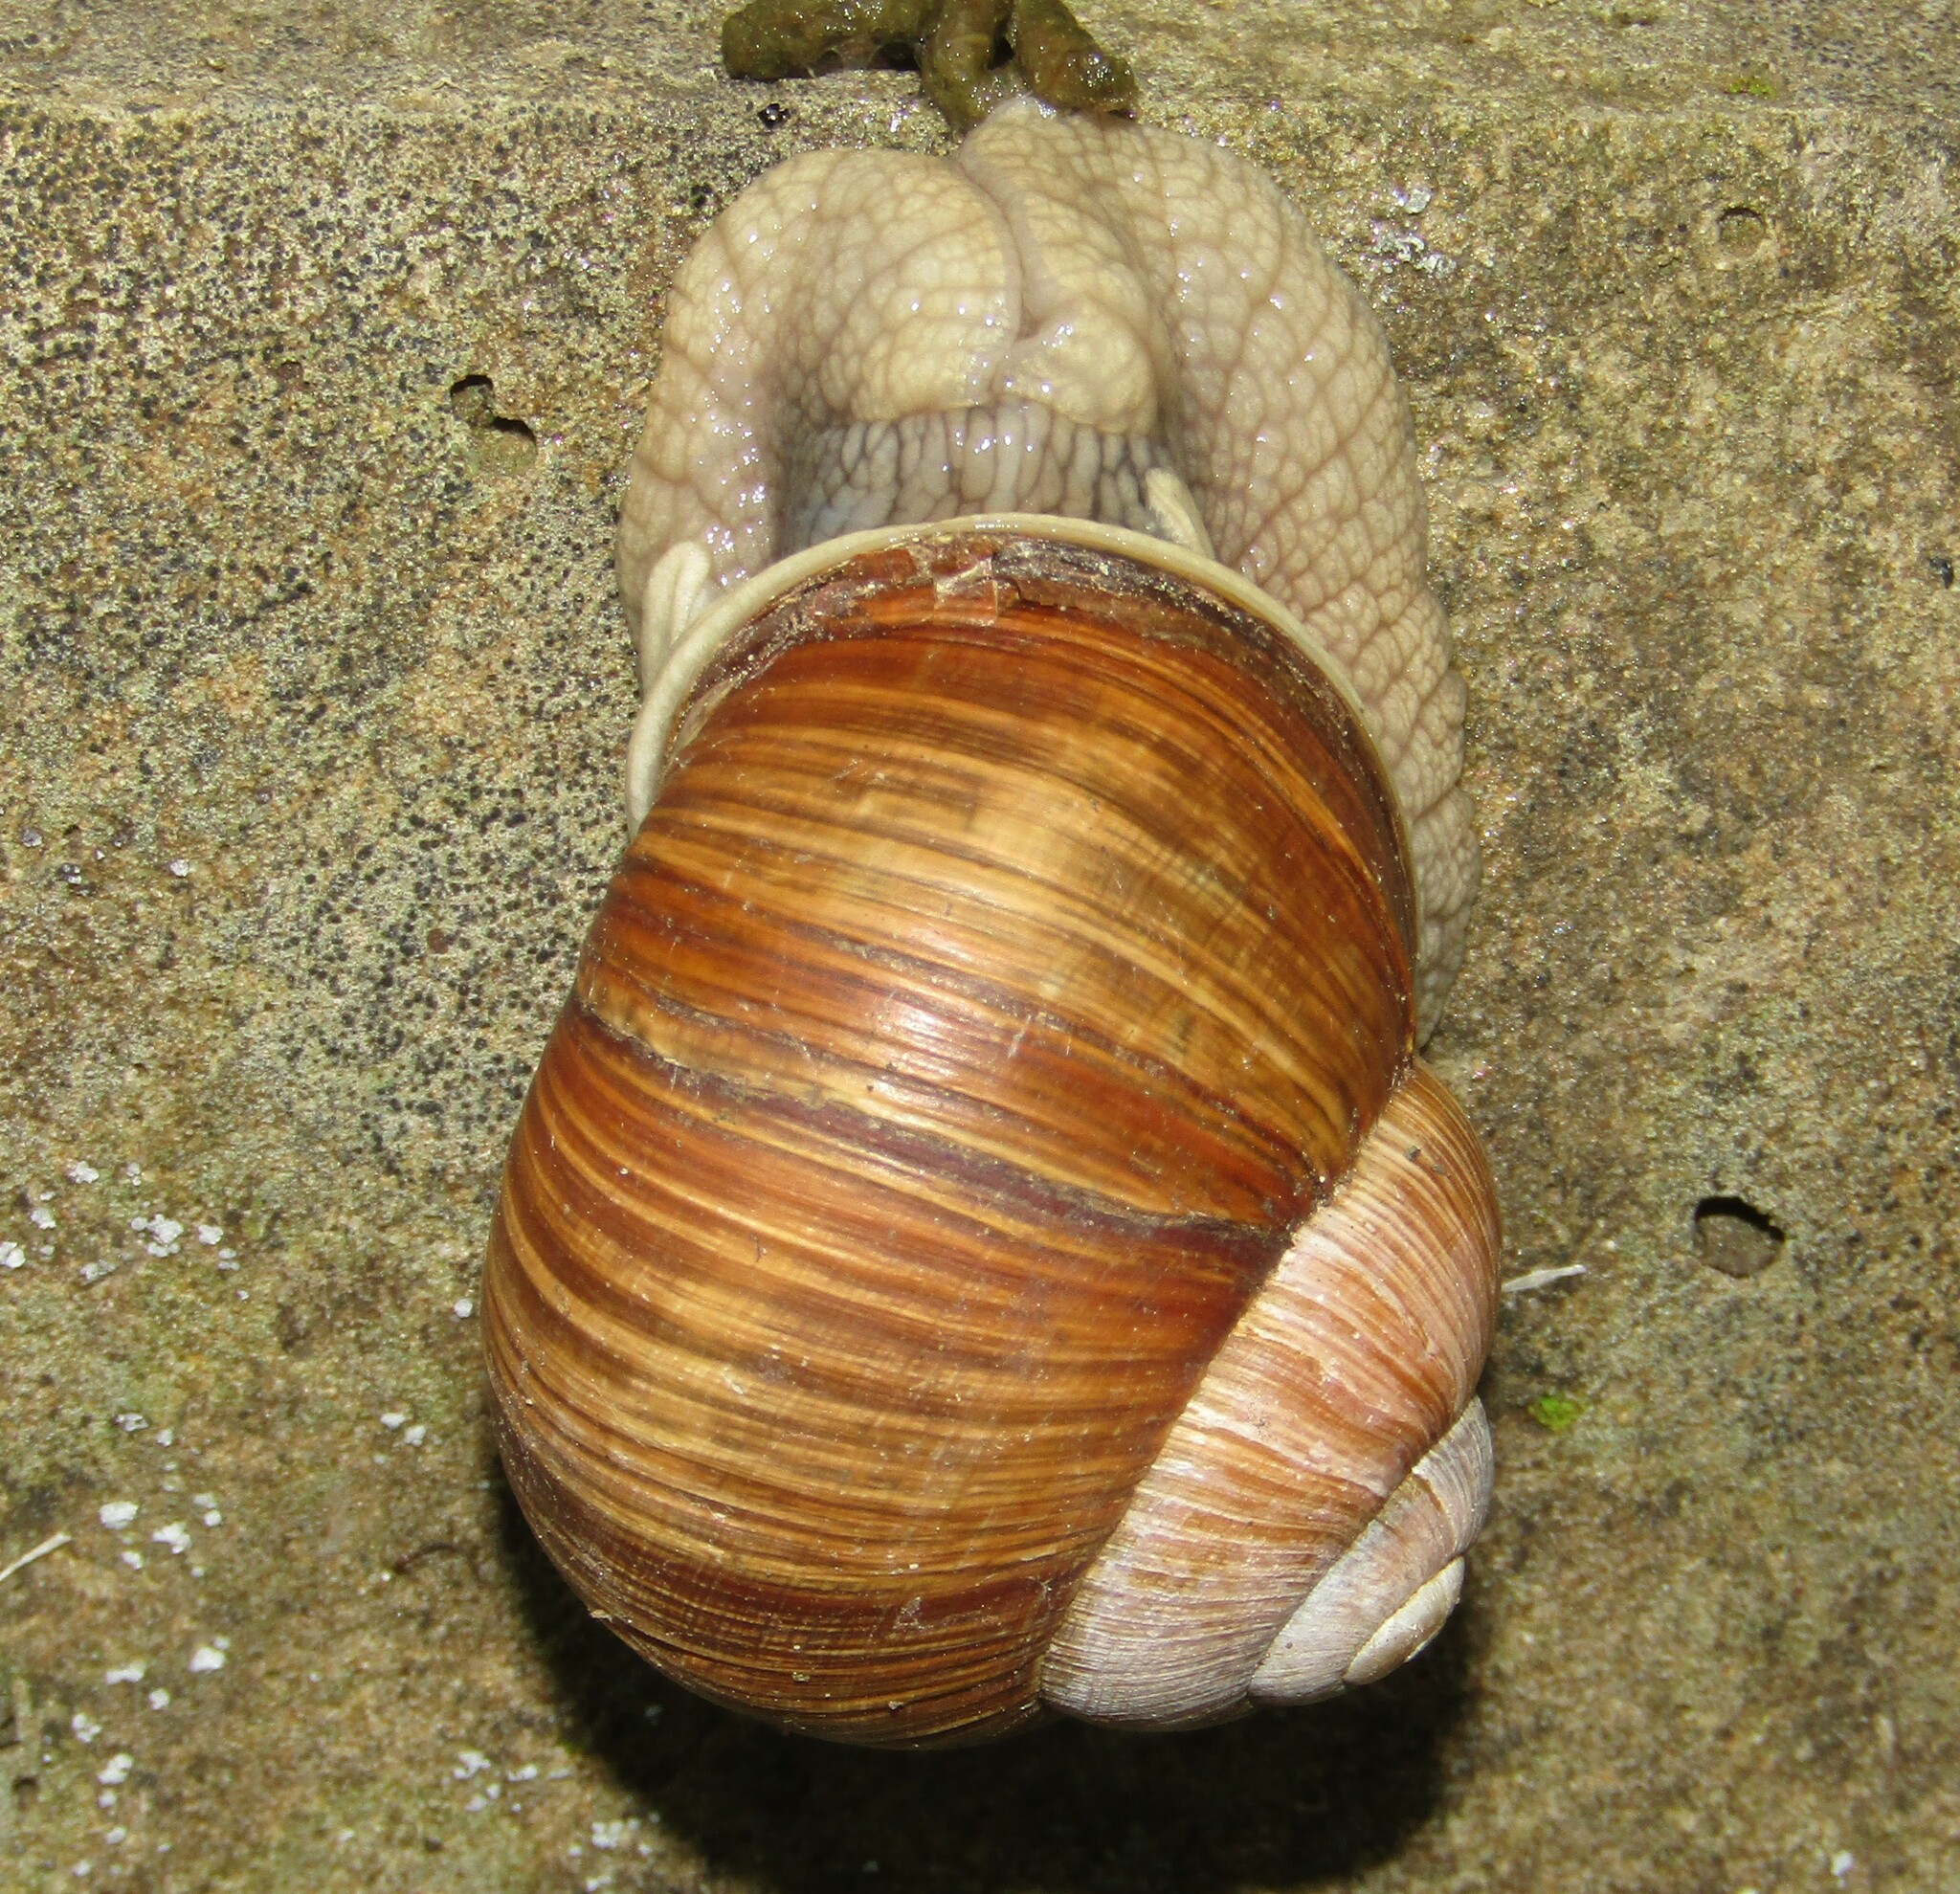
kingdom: Animalia
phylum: Mollusca
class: Gastropoda
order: Stylommatophora
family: Helicidae
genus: Helix
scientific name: Helix pomatia
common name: Roman snail
